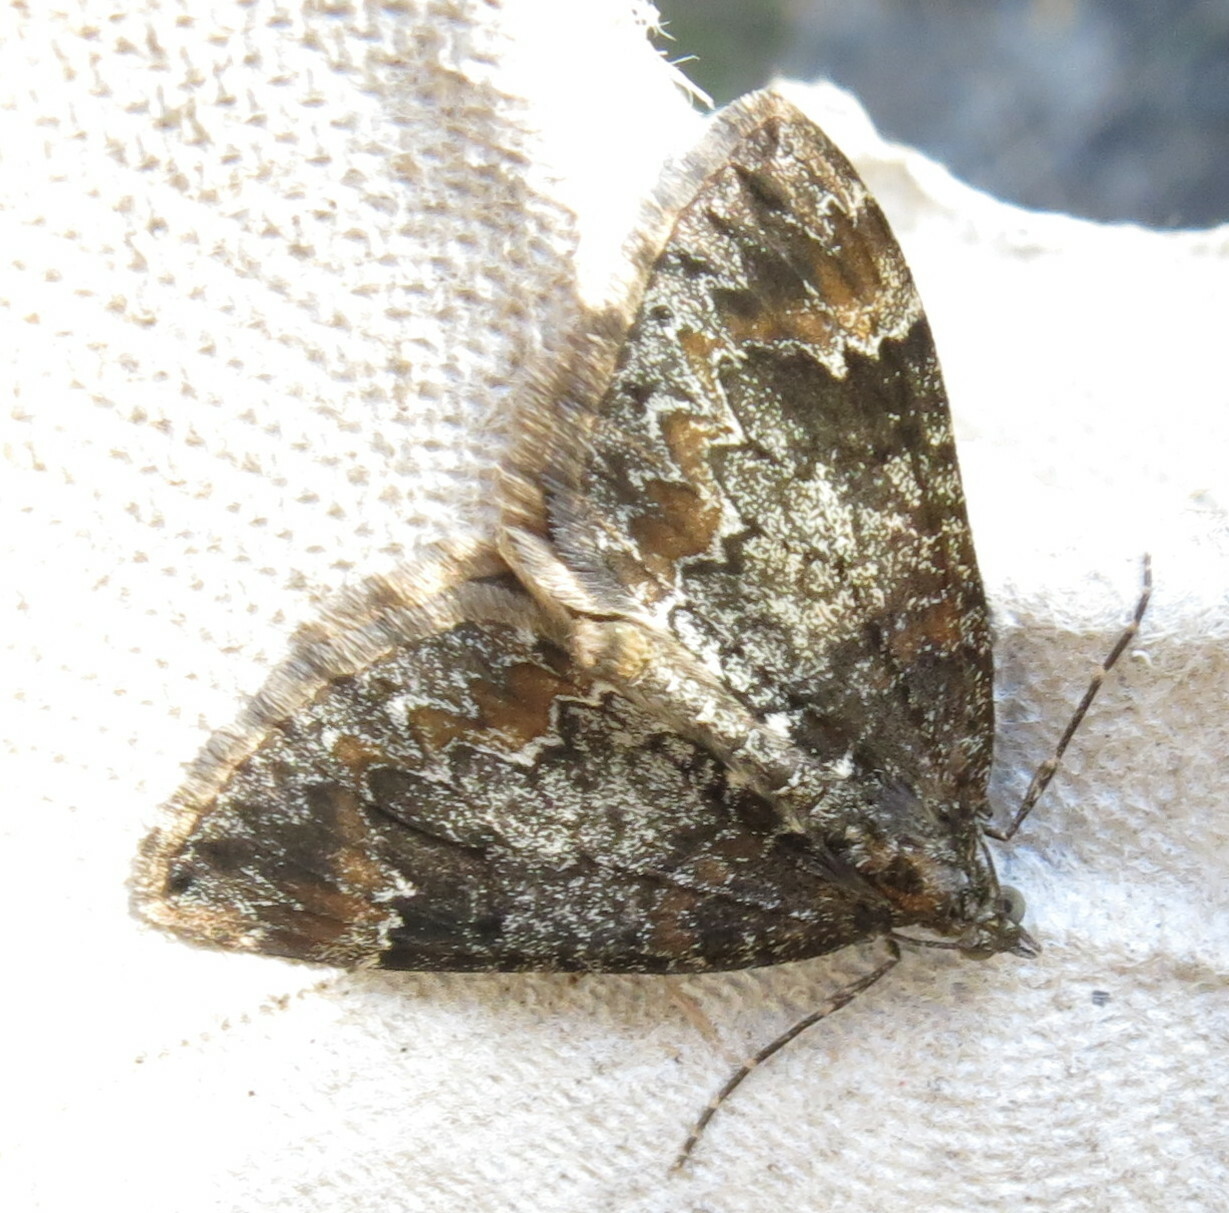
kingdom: Animalia
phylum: Arthropoda
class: Insecta
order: Lepidoptera
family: Geometridae
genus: Dysstroma
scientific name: Dysstroma truncata
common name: Common marbled carpet
